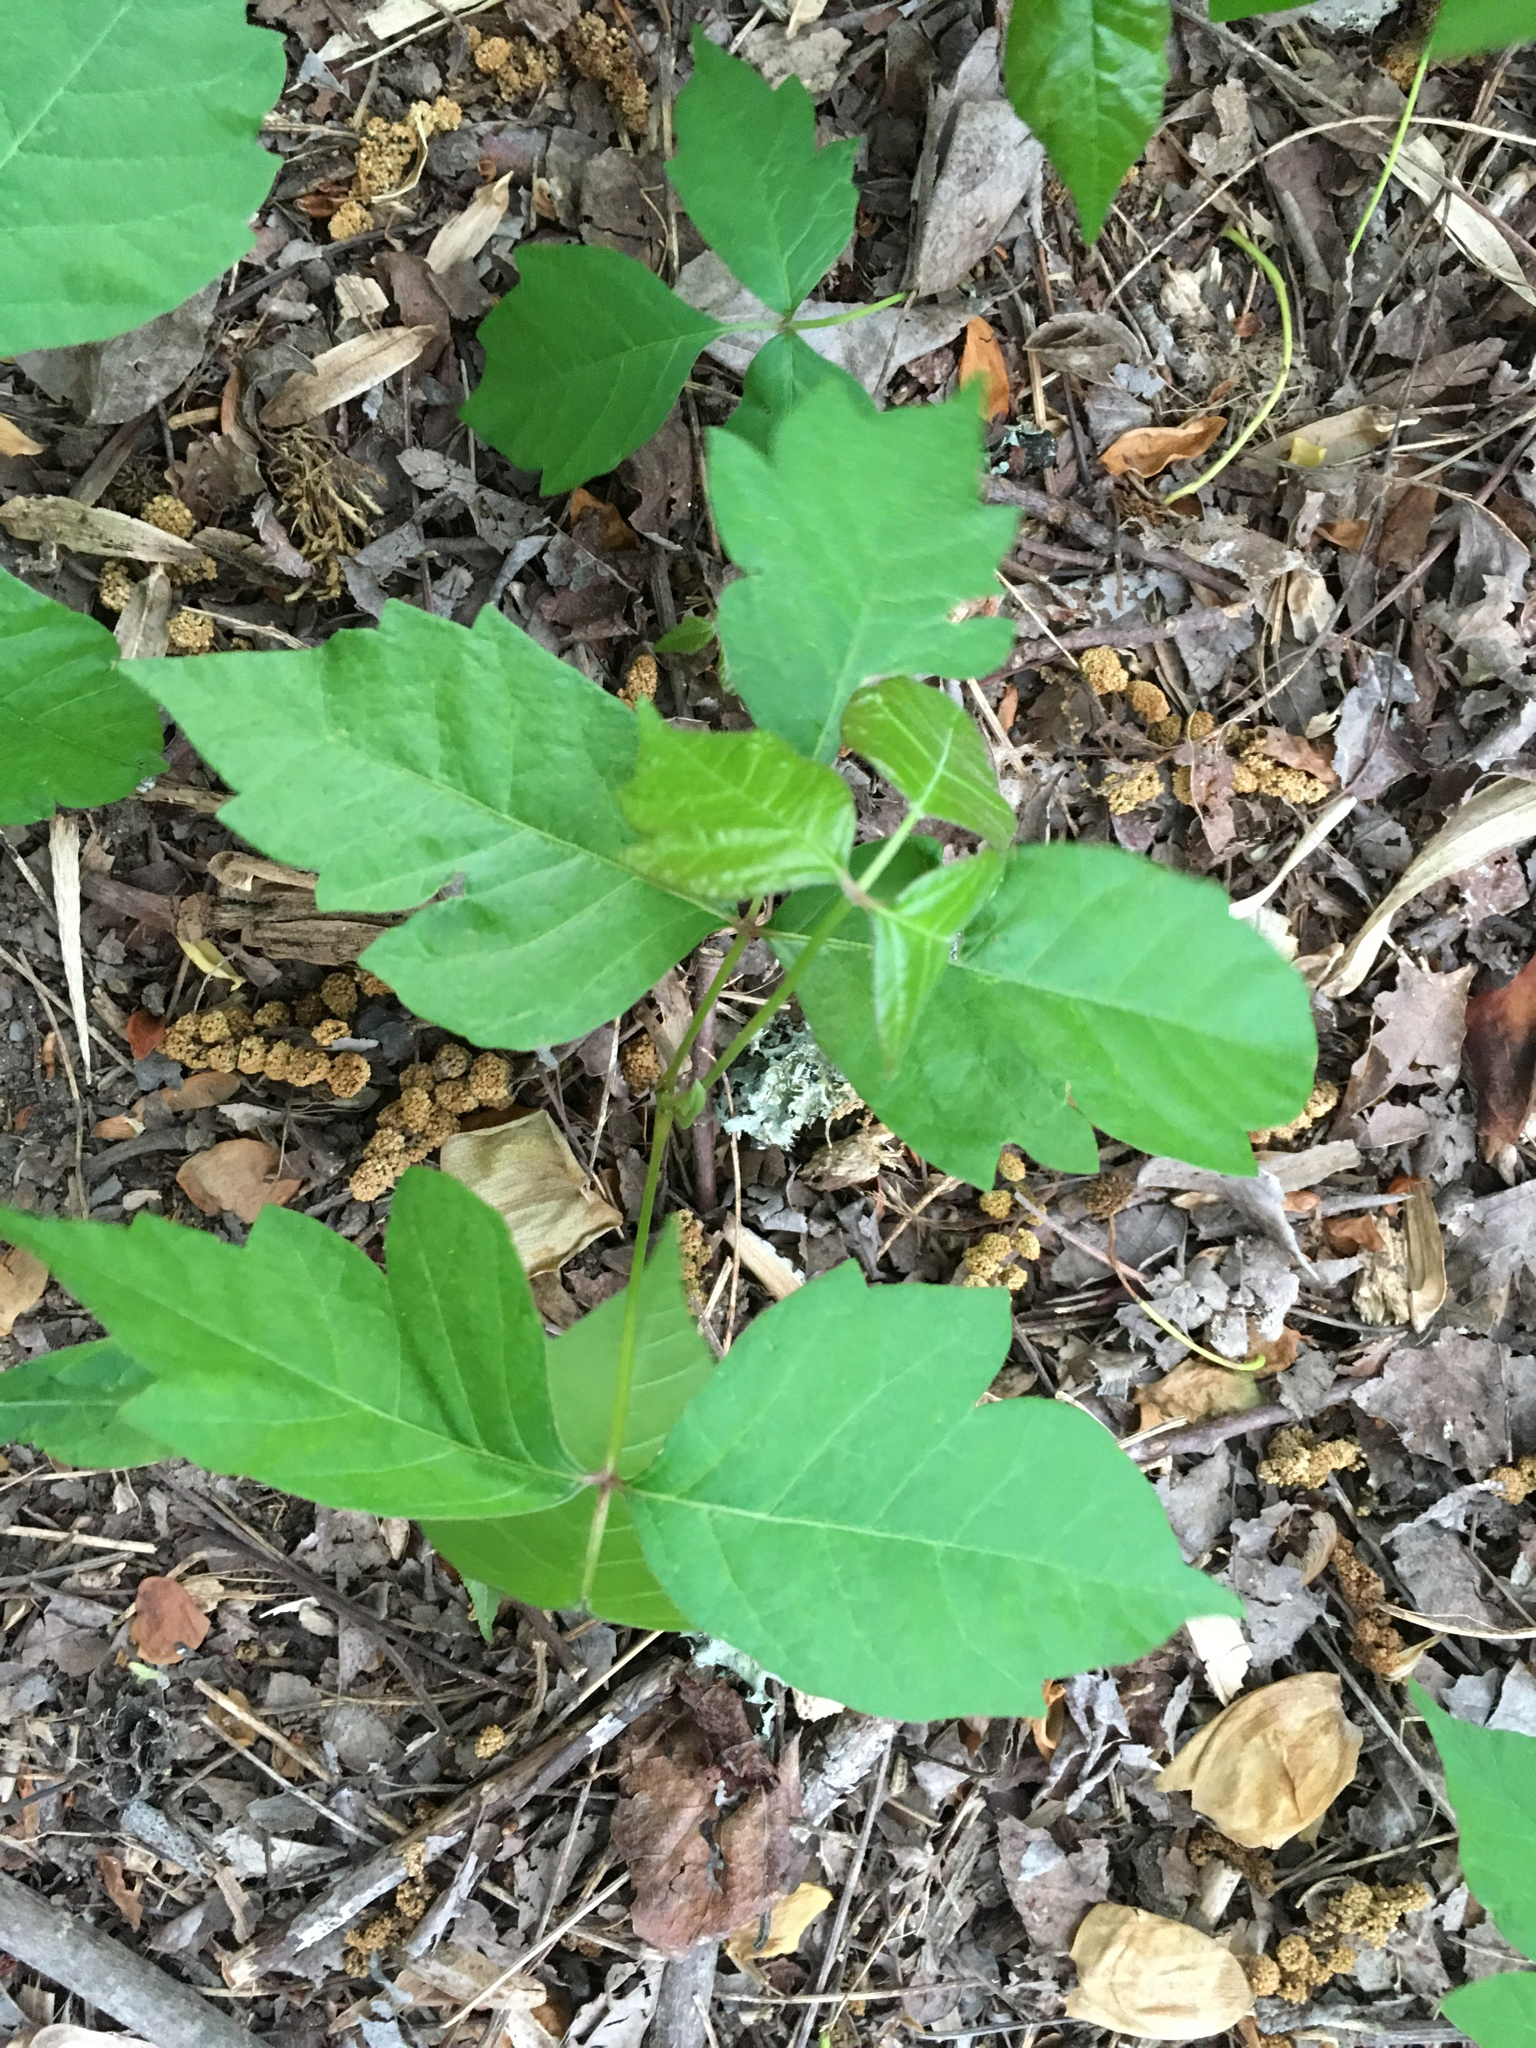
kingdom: Plantae
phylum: Tracheophyta
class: Magnoliopsida
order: Sapindales
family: Anacardiaceae
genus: Toxicodendron
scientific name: Toxicodendron radicans
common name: Poison ivy
